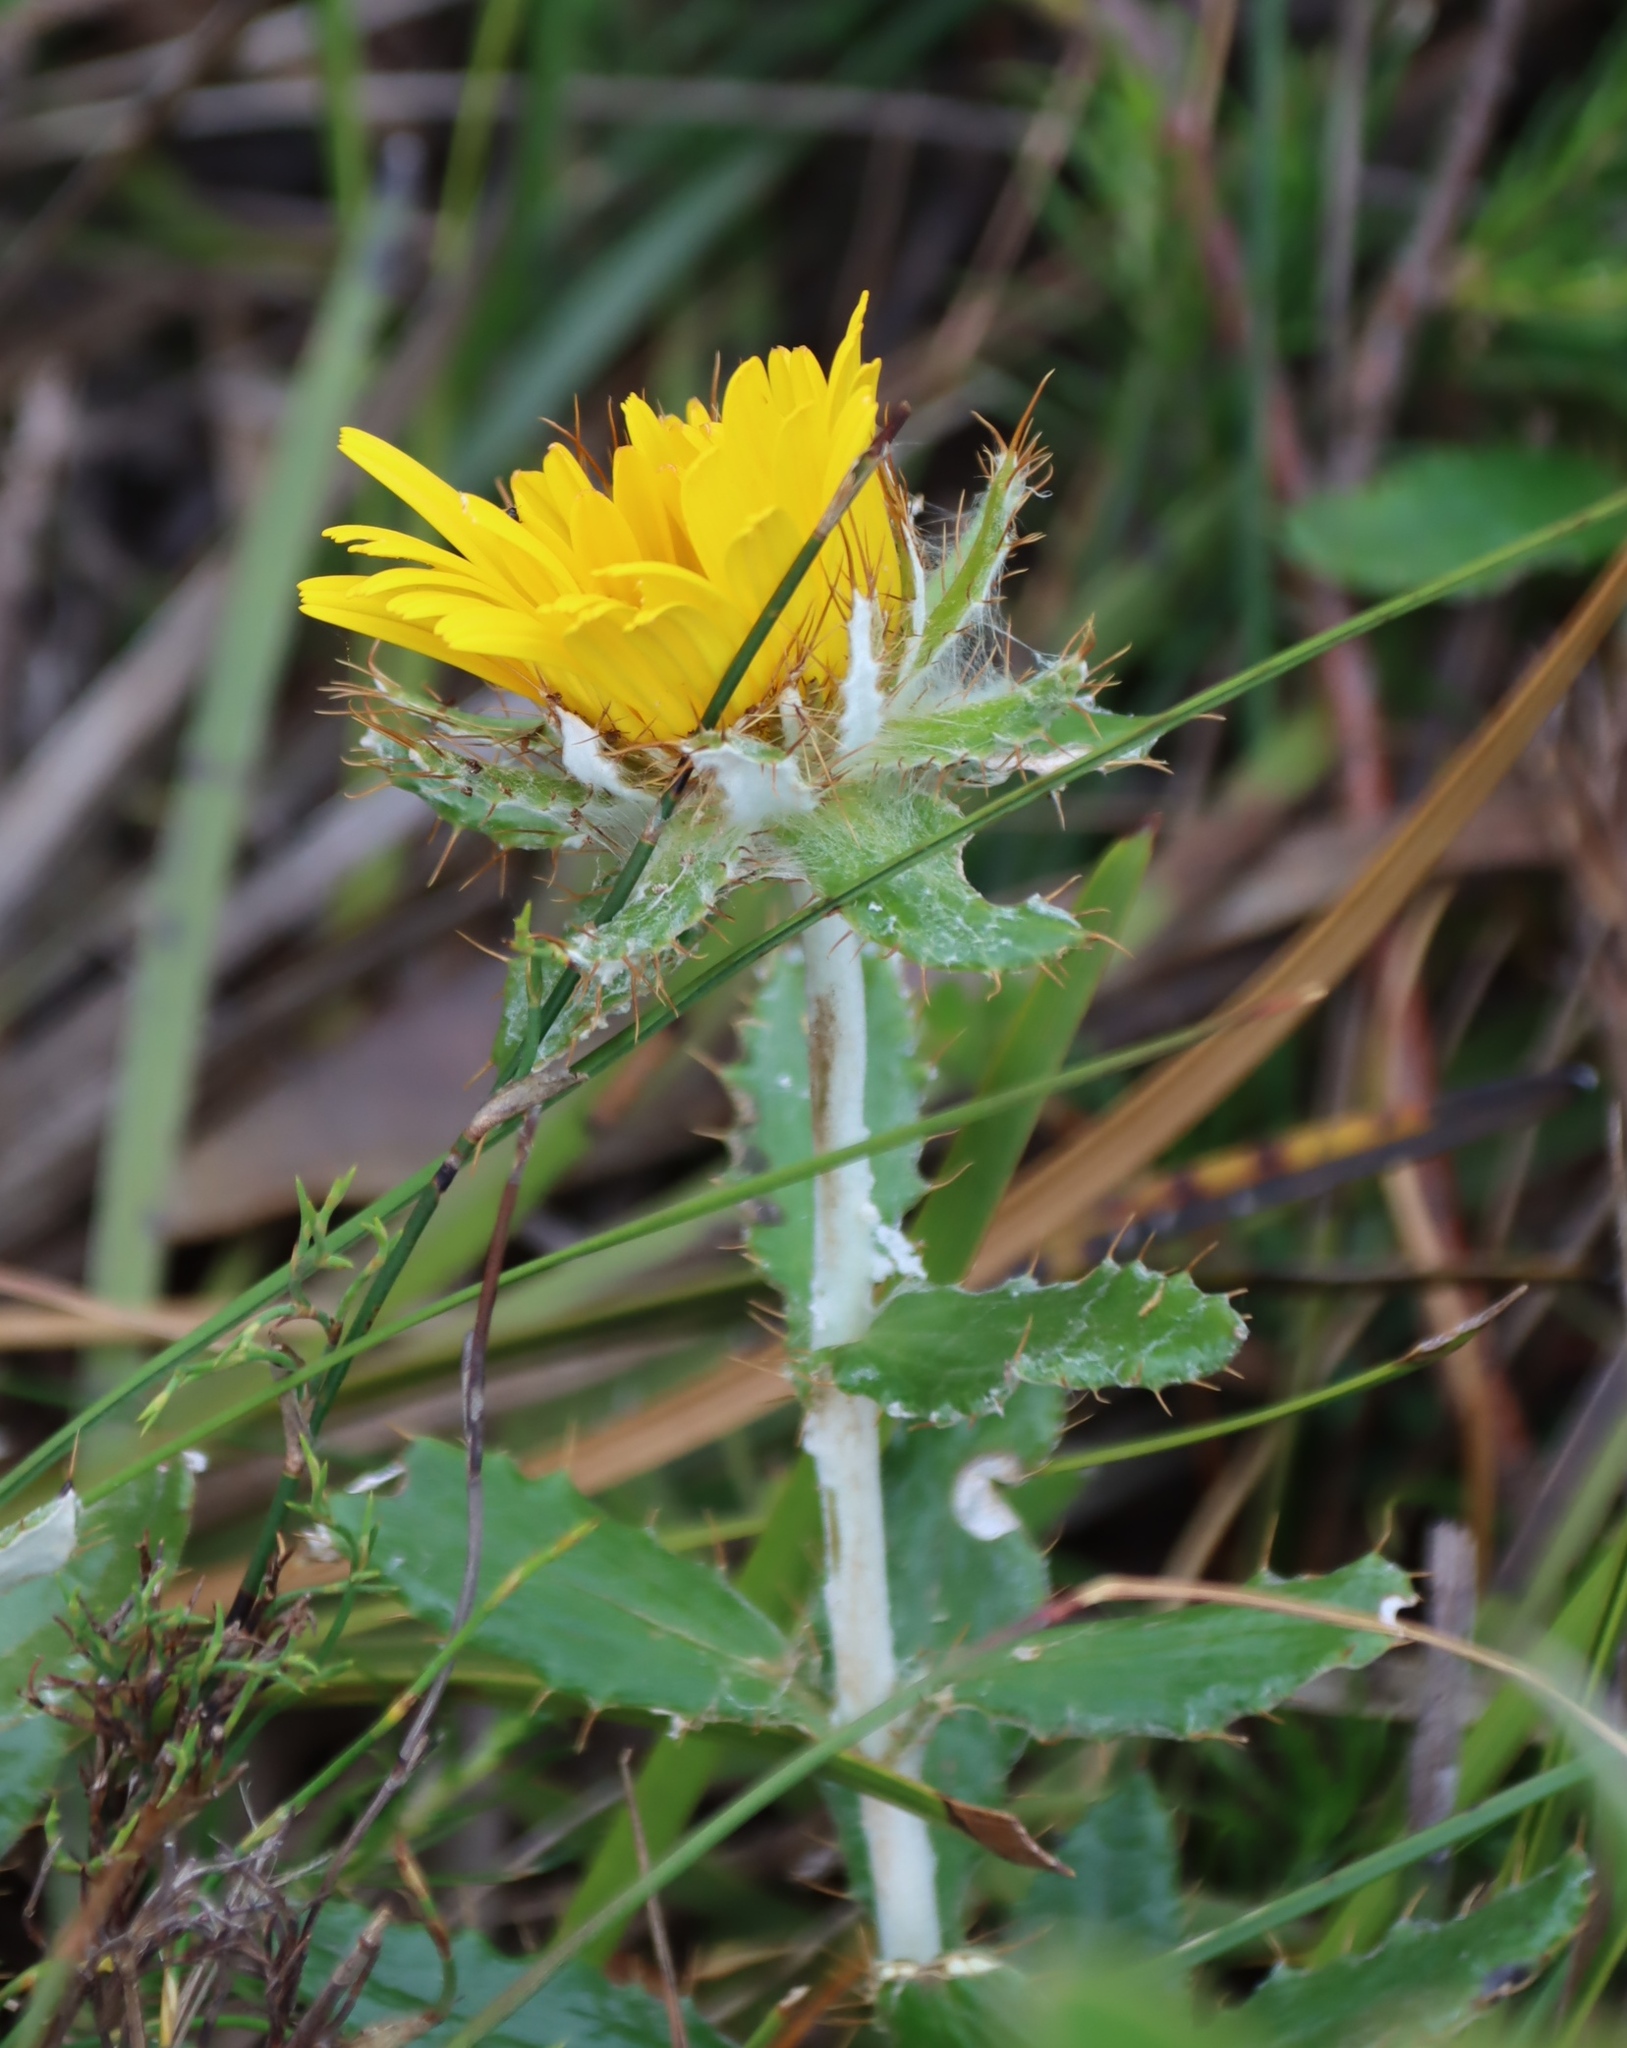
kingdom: Plantae
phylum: Tracheophyta
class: Magnoliopsida
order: Asterales
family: Asteraceae
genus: Berkheya
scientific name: Berkheya barbata
